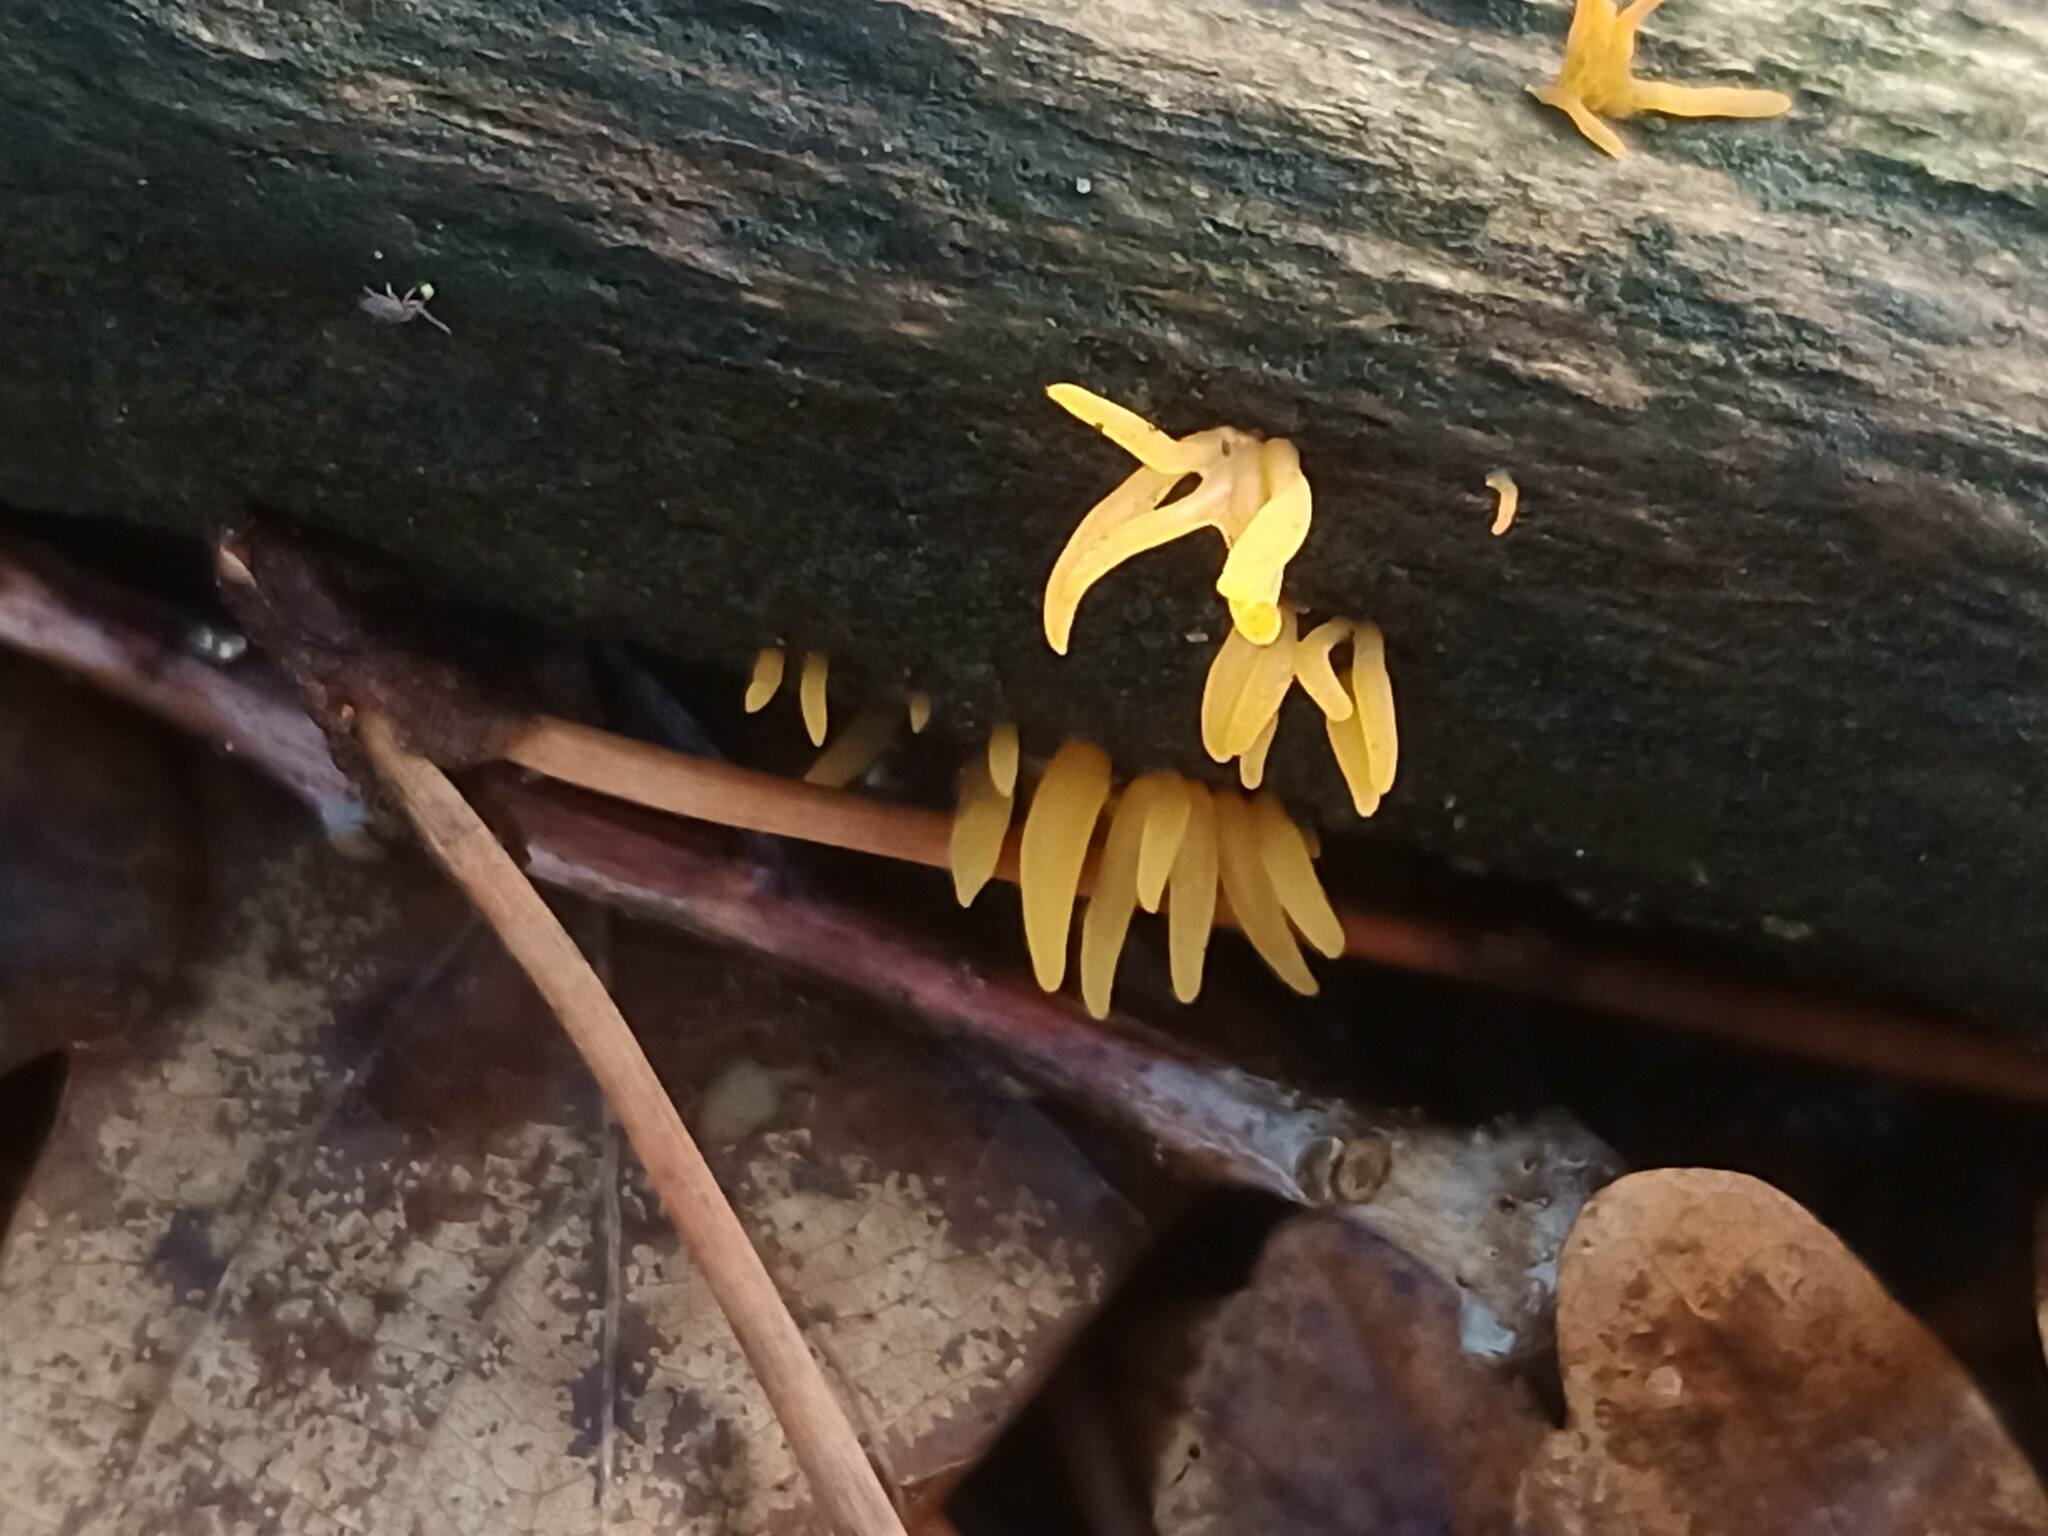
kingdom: Fungi
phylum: Basidiomycota
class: Dacrymycetes
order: Dacrymycetales
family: Dacrymycetaceae
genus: Calocera
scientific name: Calocera cornea
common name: Small stagshorn
